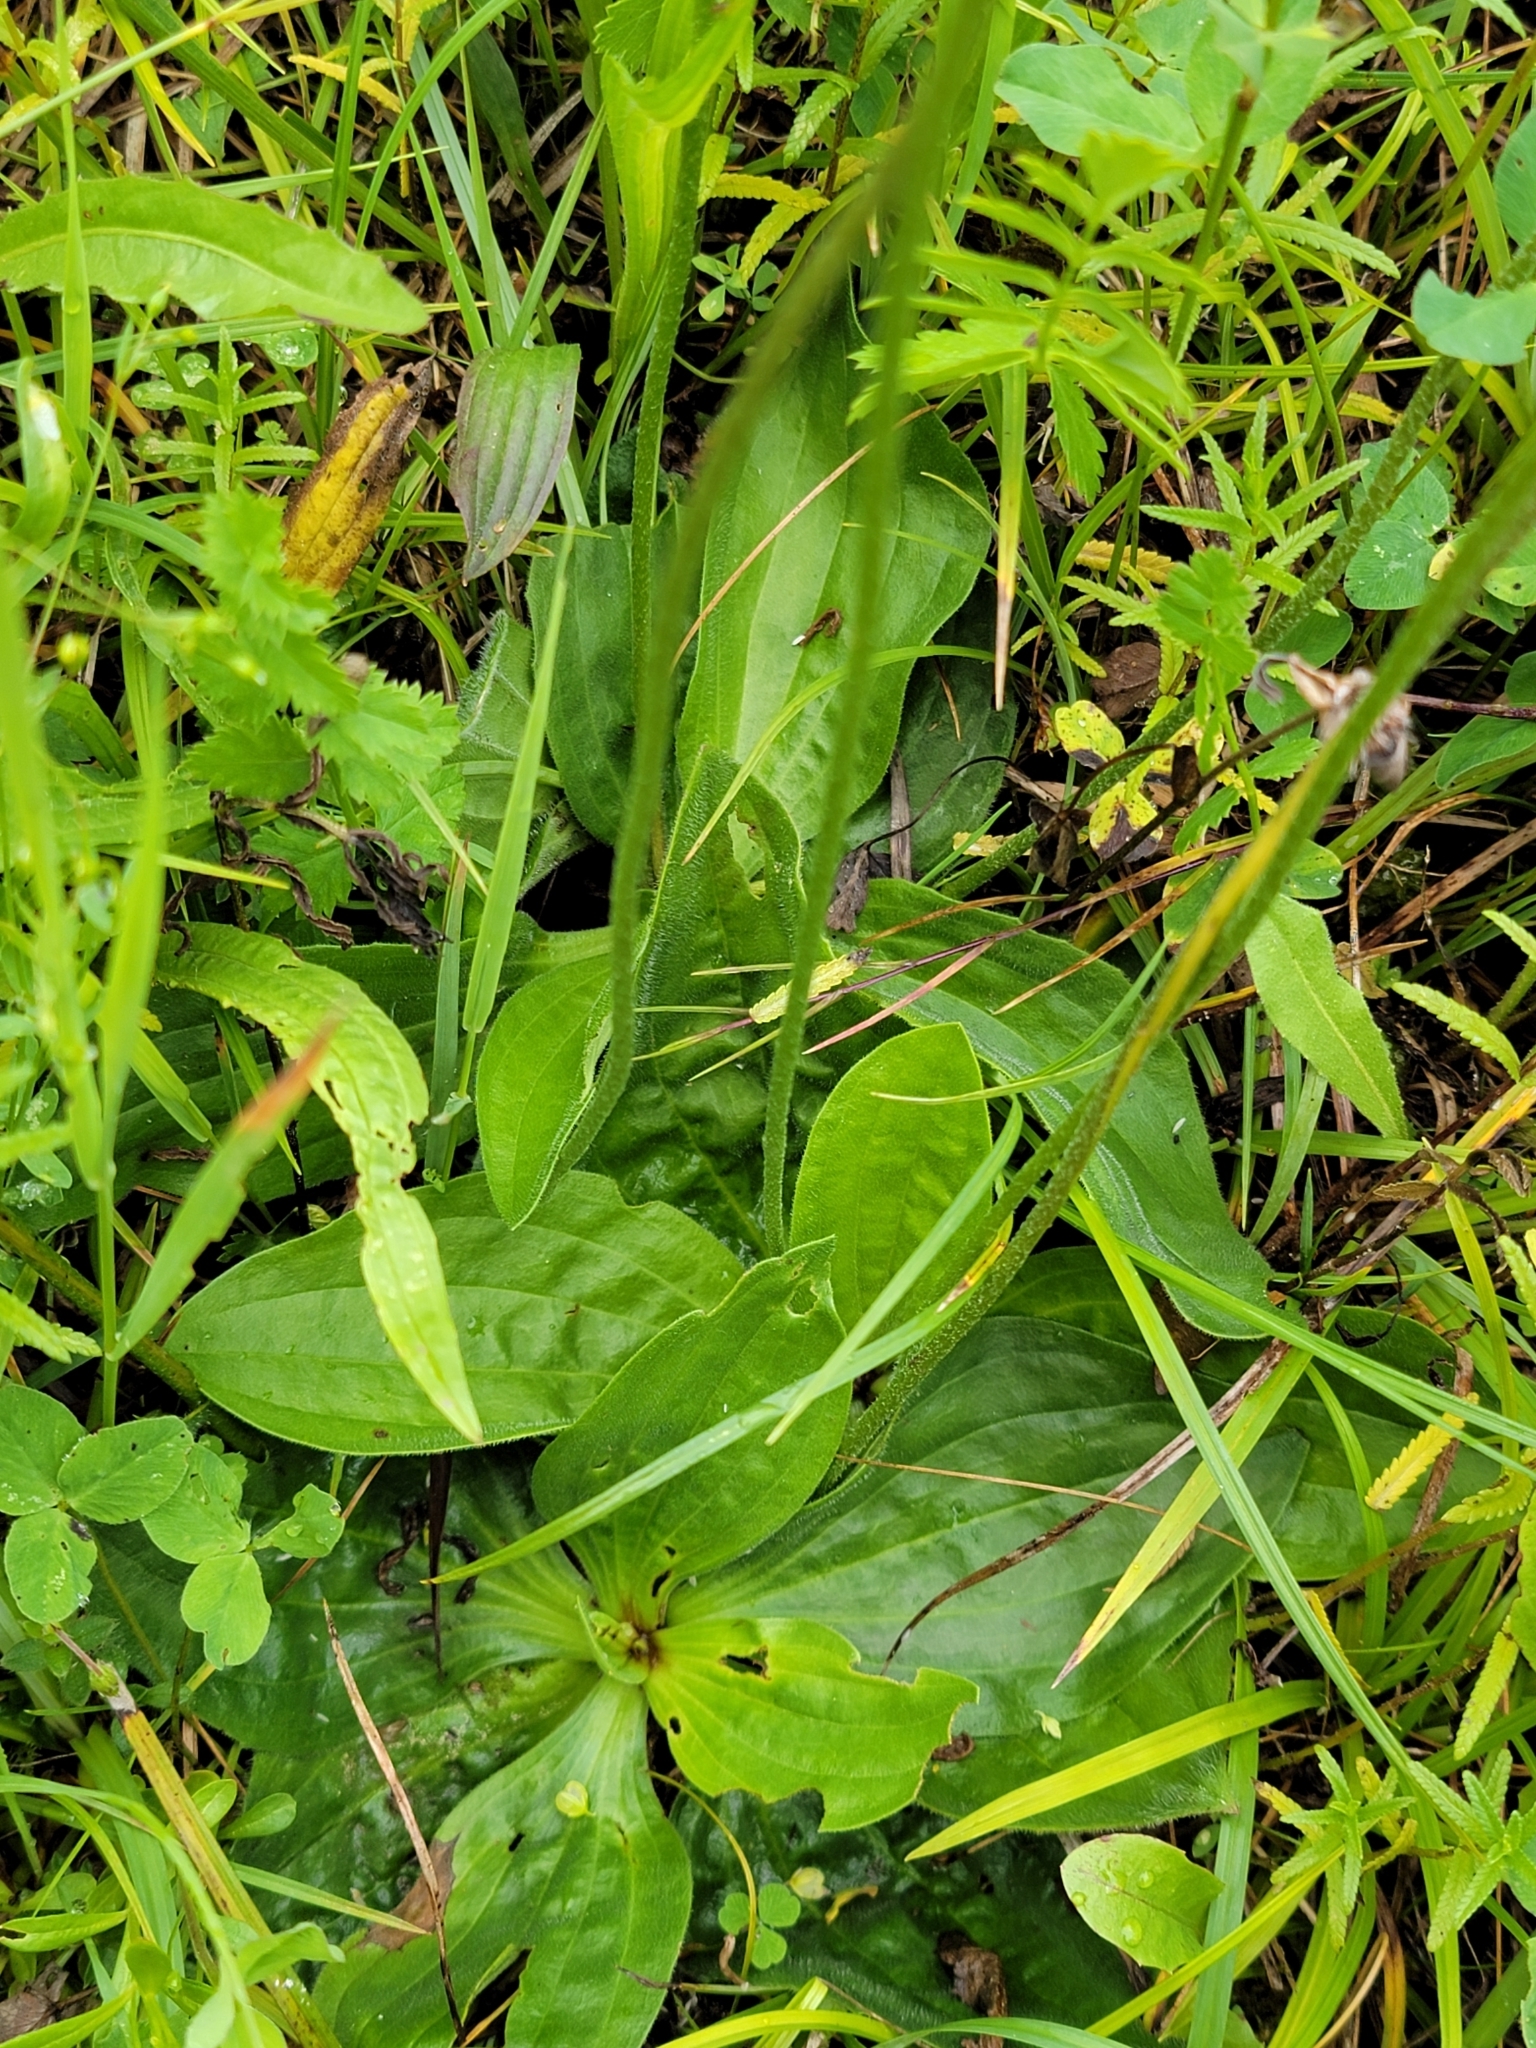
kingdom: Plantae
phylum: Tracheophyta
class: Magnoliopsida
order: Lamiales
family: Plantaginaceae
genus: Plantago
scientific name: Plantago media
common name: Hoary plantain
